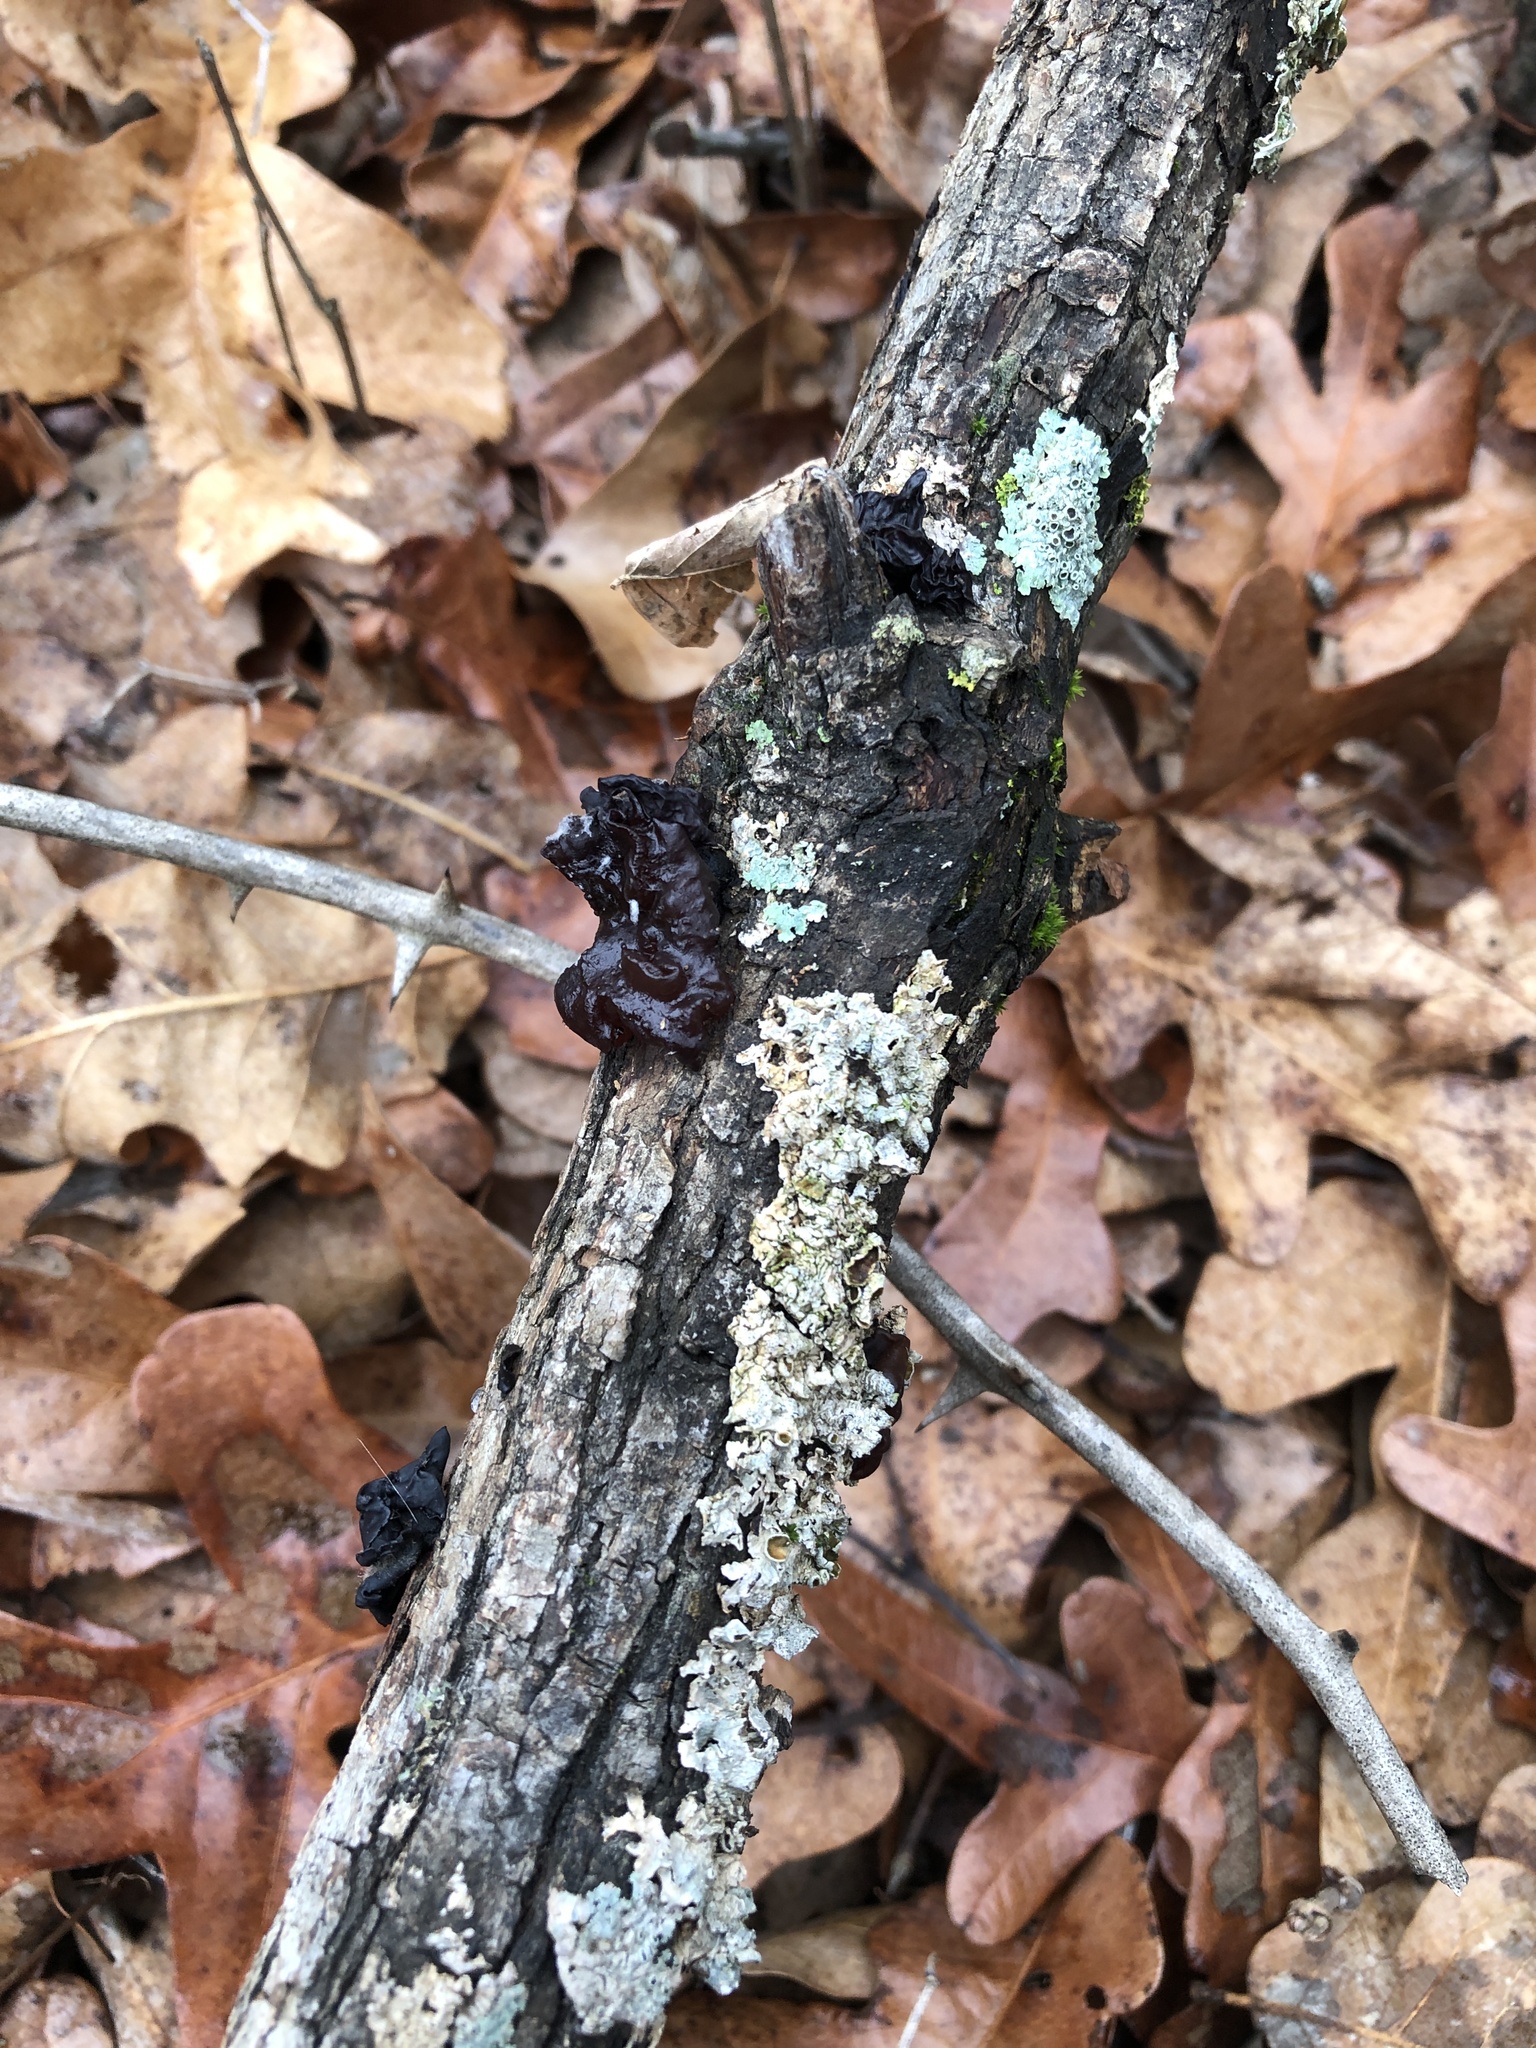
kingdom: Fungi
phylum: Basidiomycota
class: Agaricomycetes
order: Auriculariales
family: Auriculariaceae
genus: Exidia
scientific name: Exidia
